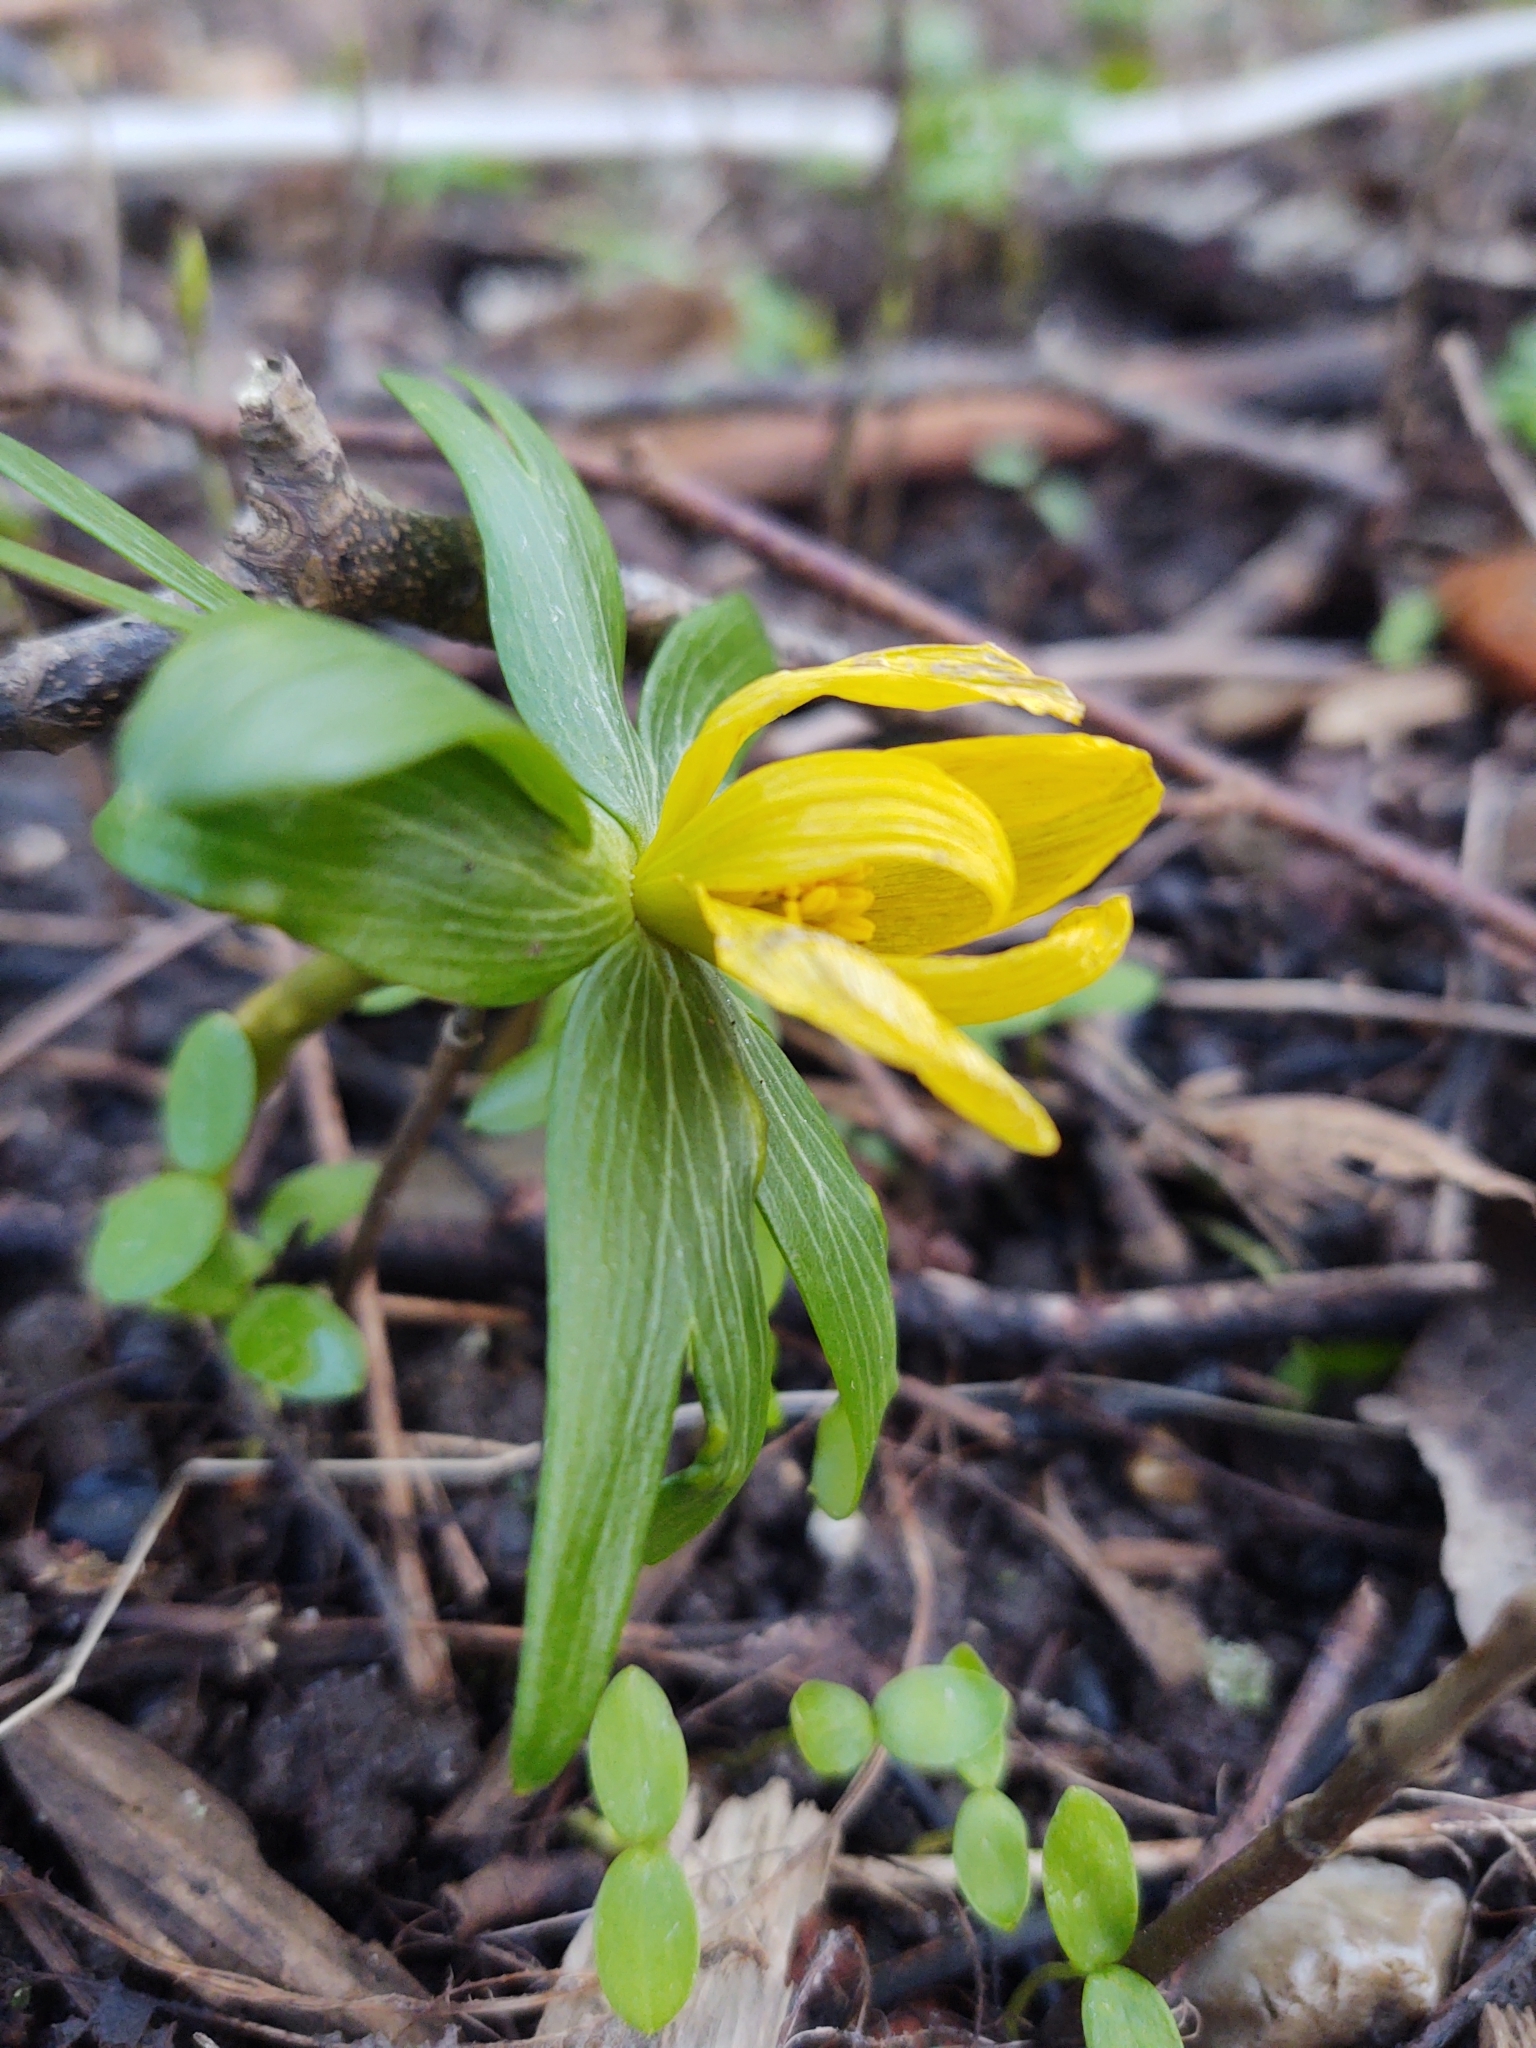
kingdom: Plantae
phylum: Tracheophyta
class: Magnoliopsida
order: Ranunculales
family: Ranunculaceae
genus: Eranthis
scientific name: Eranthis hyemalis
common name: Winter aconite
